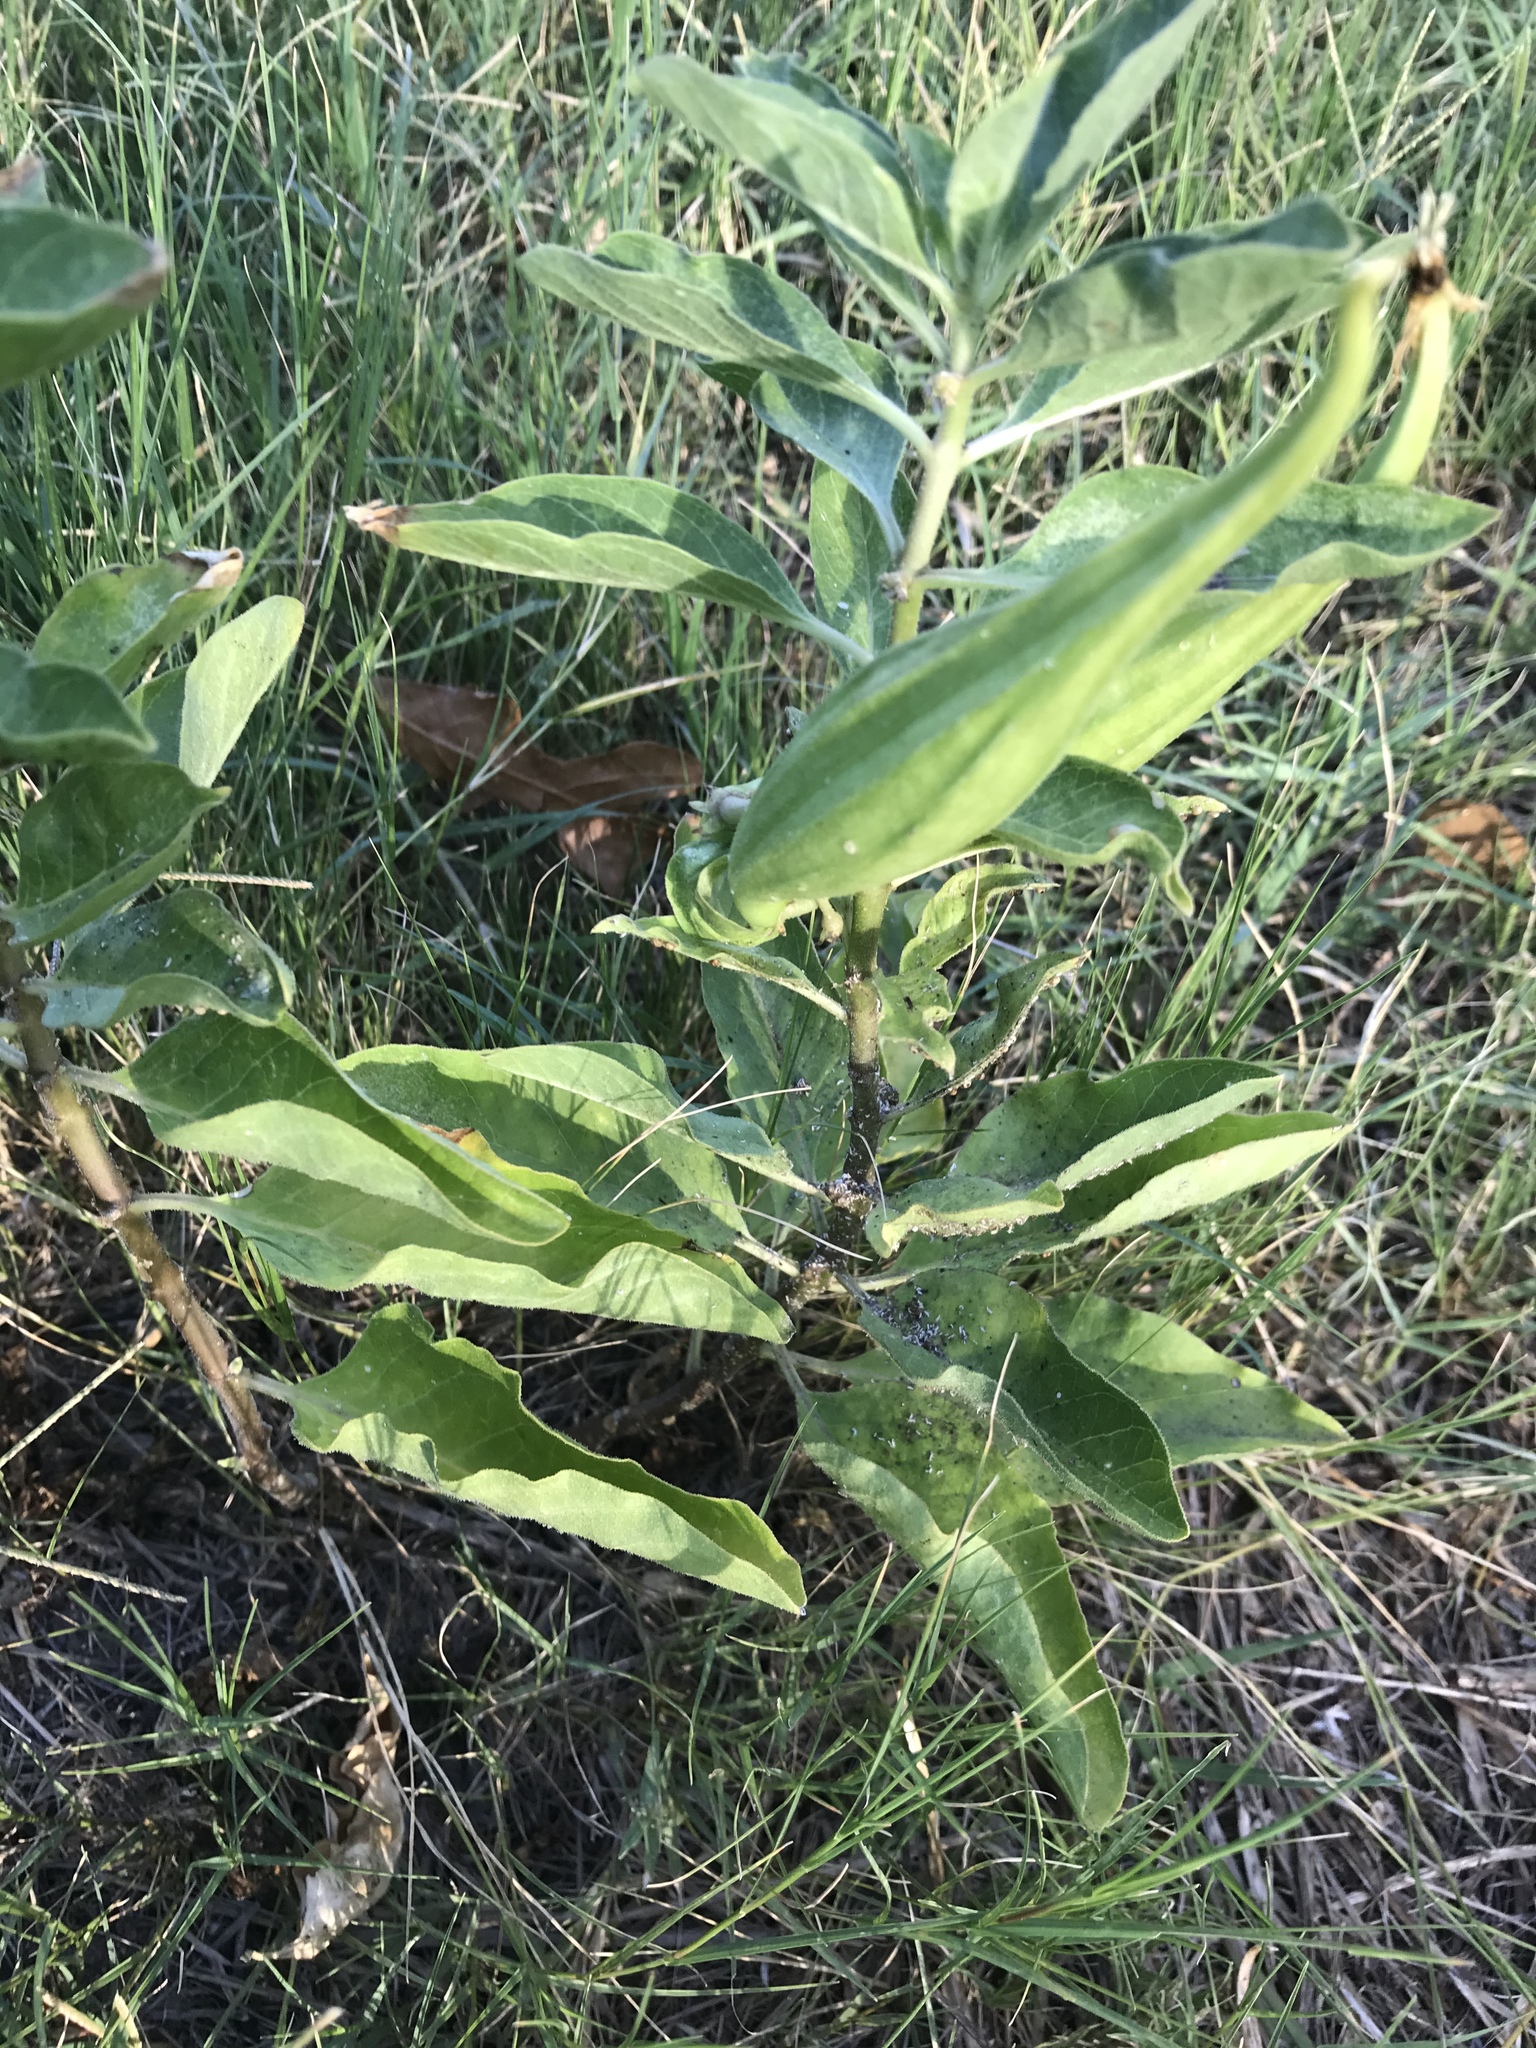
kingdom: Plantae
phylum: Tracheophyta
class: Magnoliopsida
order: Gentianales
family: Apocynaceae
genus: Asclepias
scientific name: Asclepias oenotheroides
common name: Zizotes milkweed
